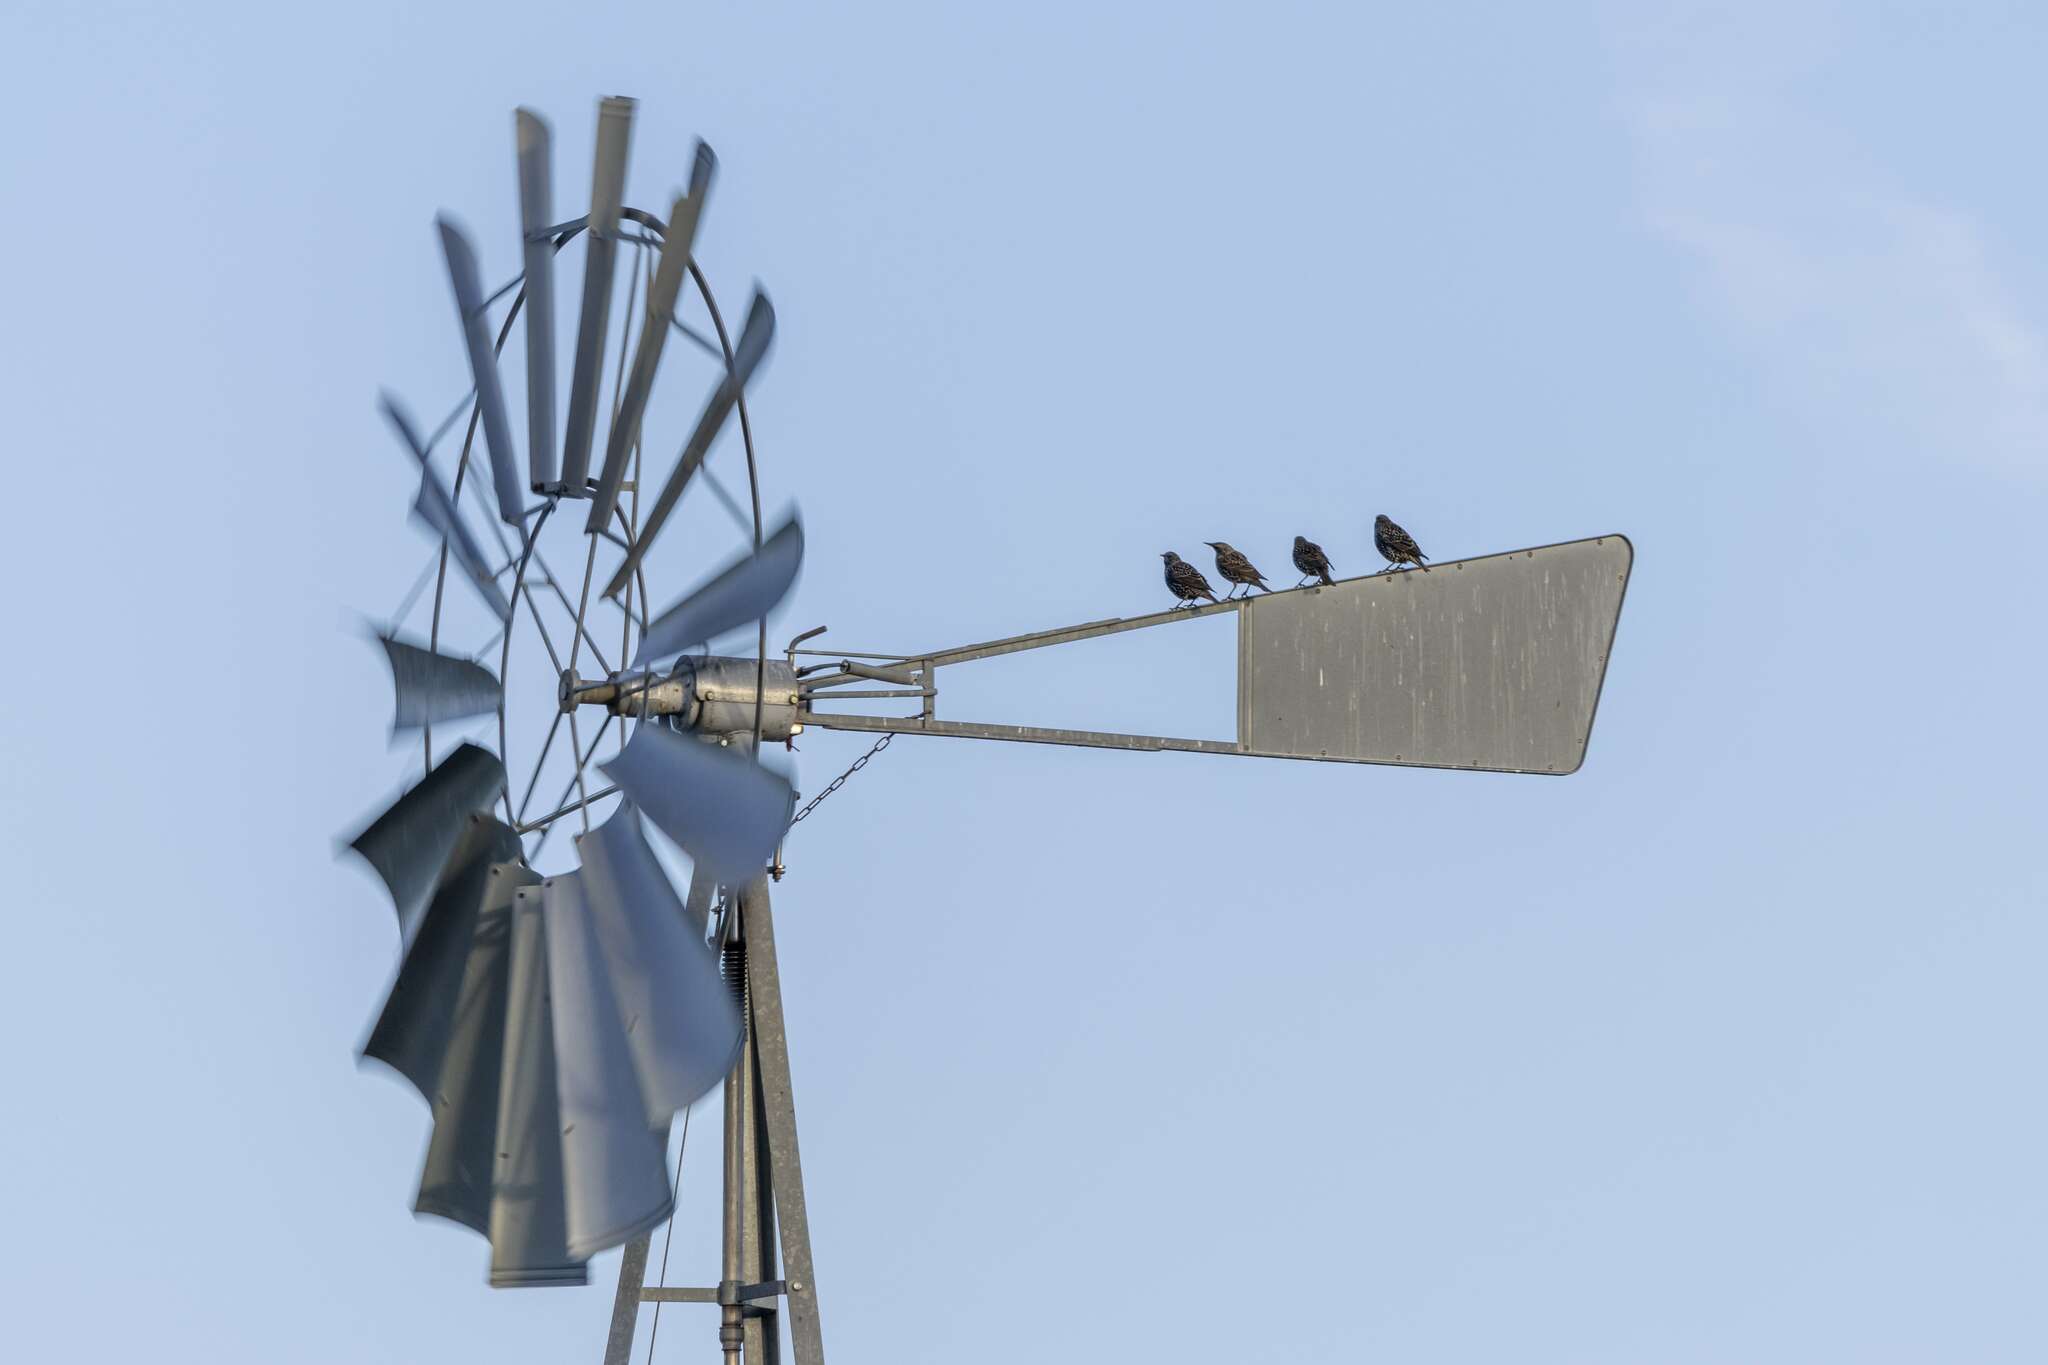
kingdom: Animalia
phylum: Chordata
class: Aves
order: Passeriformes
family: Sturnidae
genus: Sturnus
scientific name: Sturnus vulgaris
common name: Common starling
